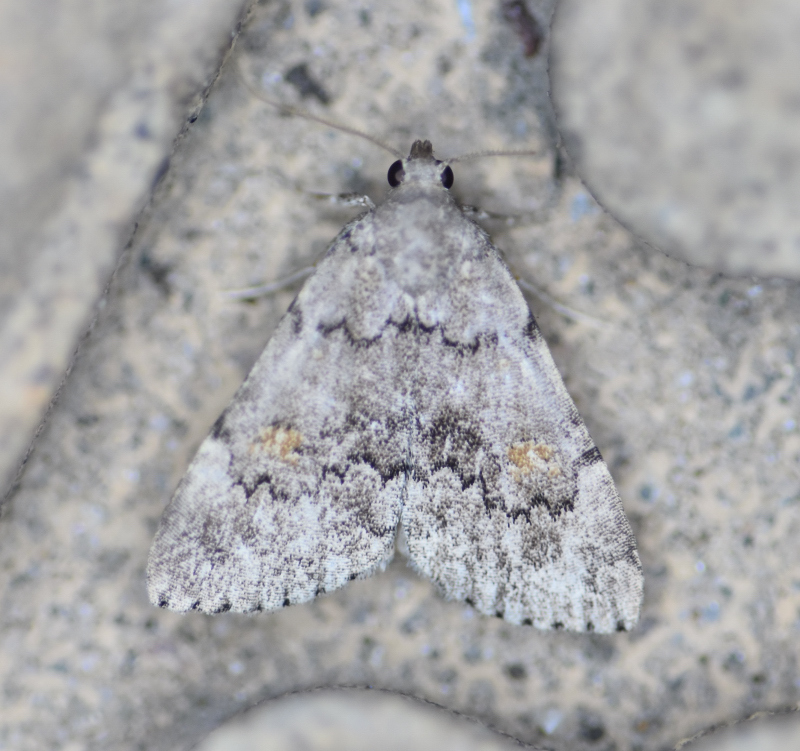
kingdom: Animalia
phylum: Arthropoda
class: Insecta
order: Lepidoptera
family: Erebidae
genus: Idia
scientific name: Idia aemula
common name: Common idia moth
